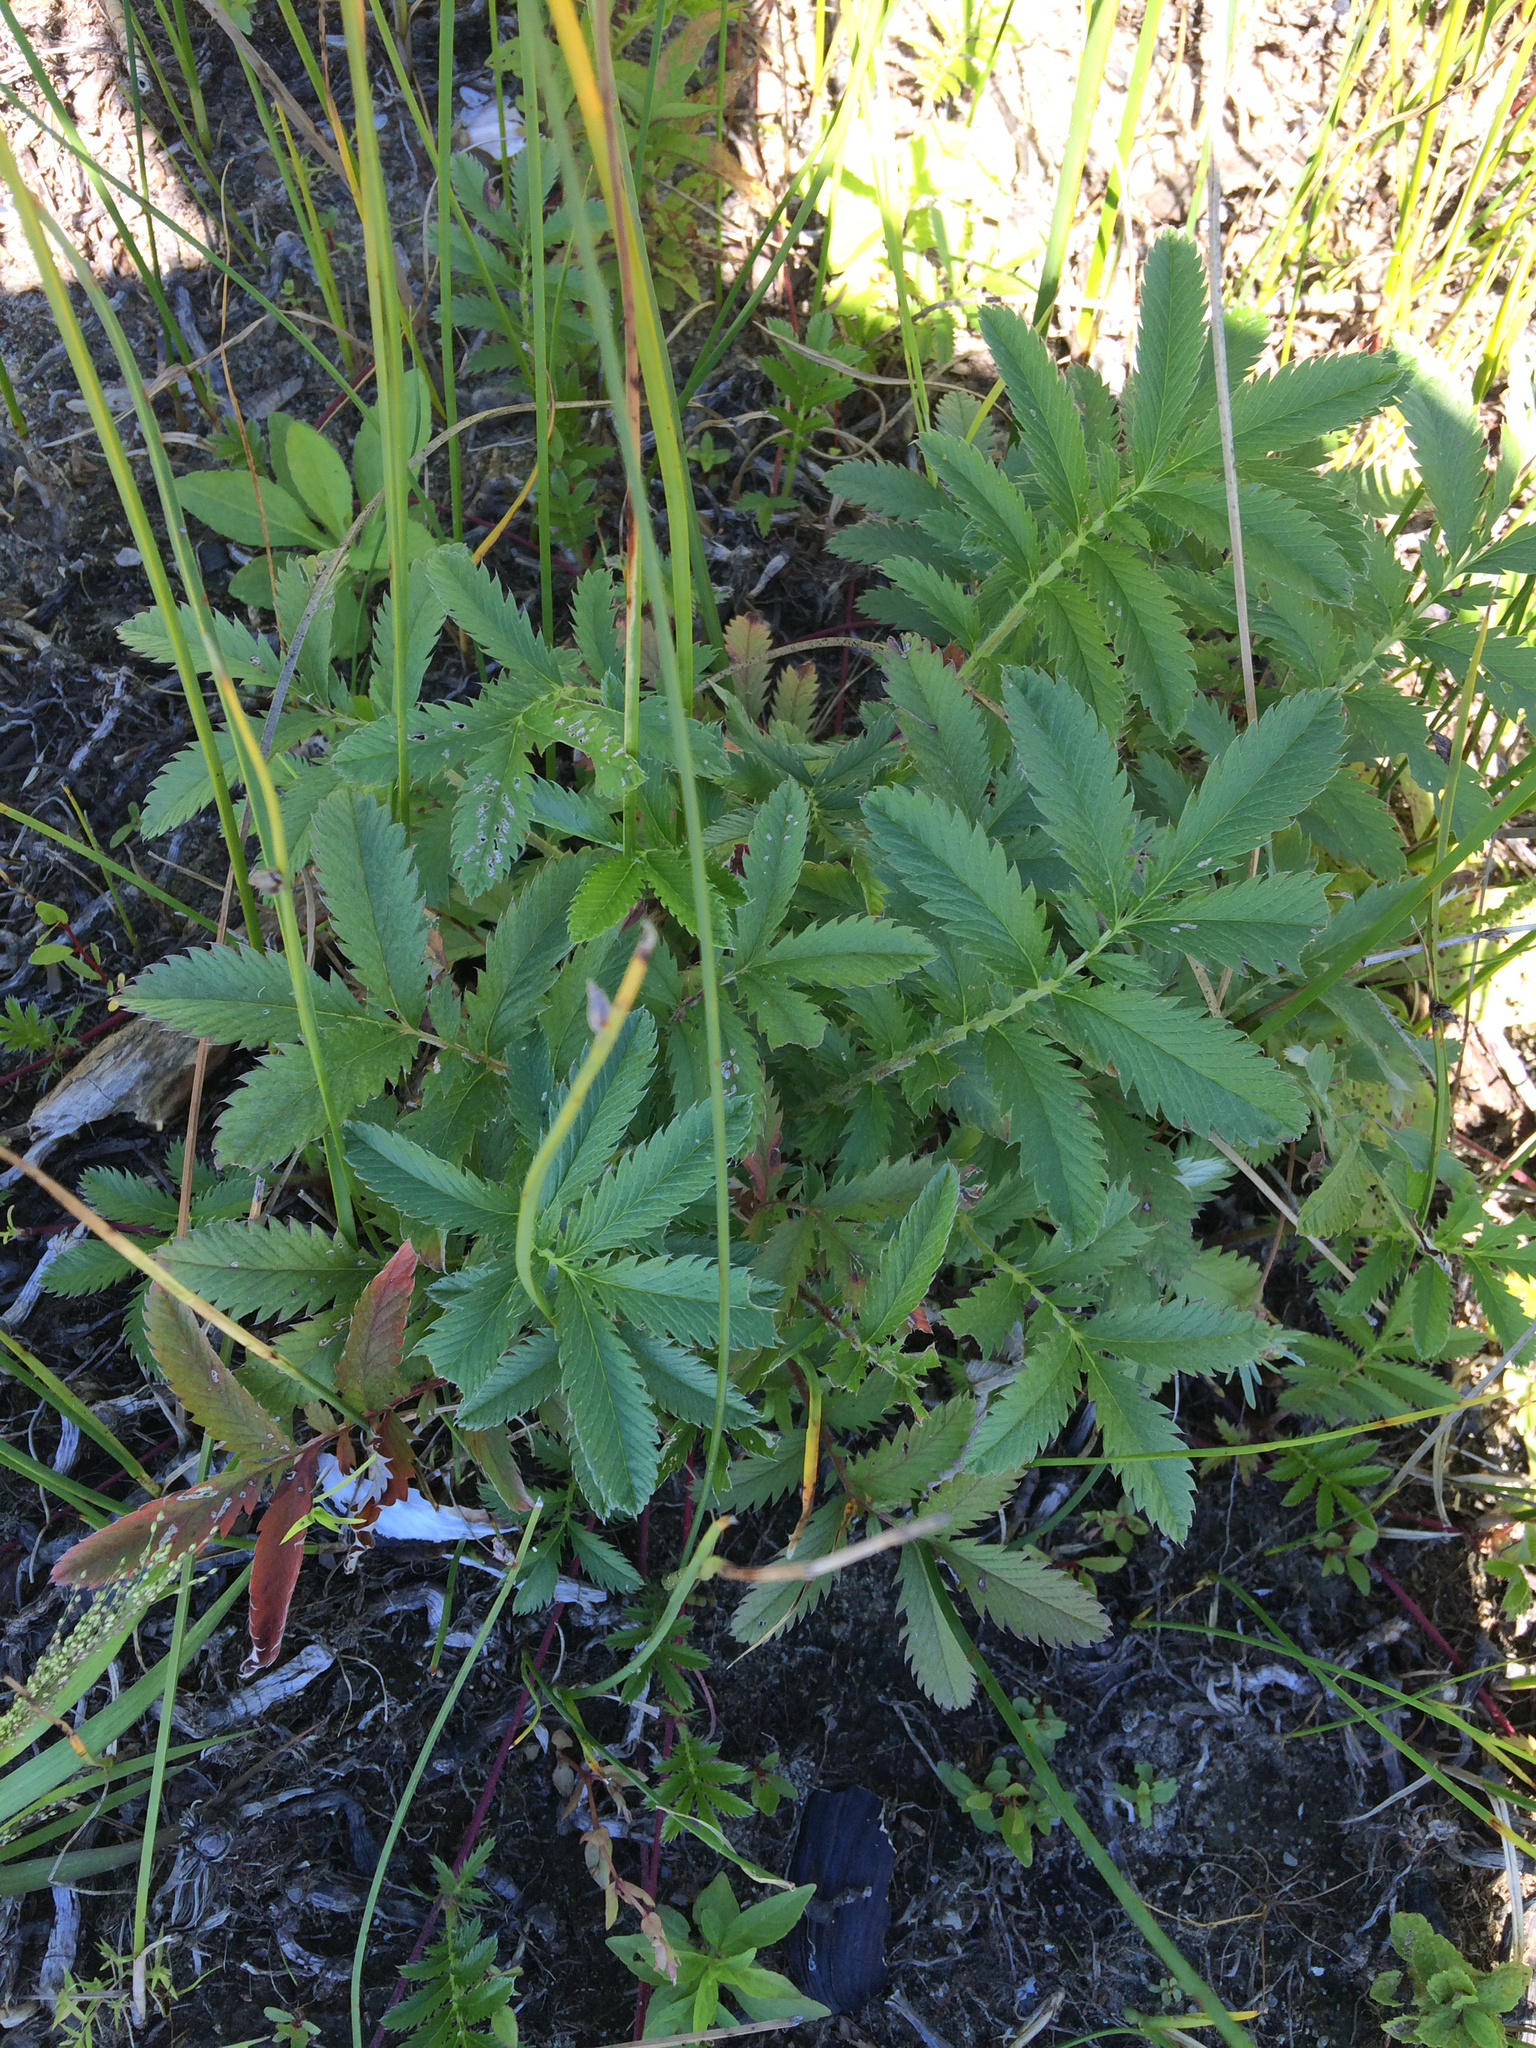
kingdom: Plantae
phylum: Tracheophyta
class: Magnoliopsida
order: Rosales
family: Rosaceae
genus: Argentina
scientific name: Argentina anserina
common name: Common silverweed
